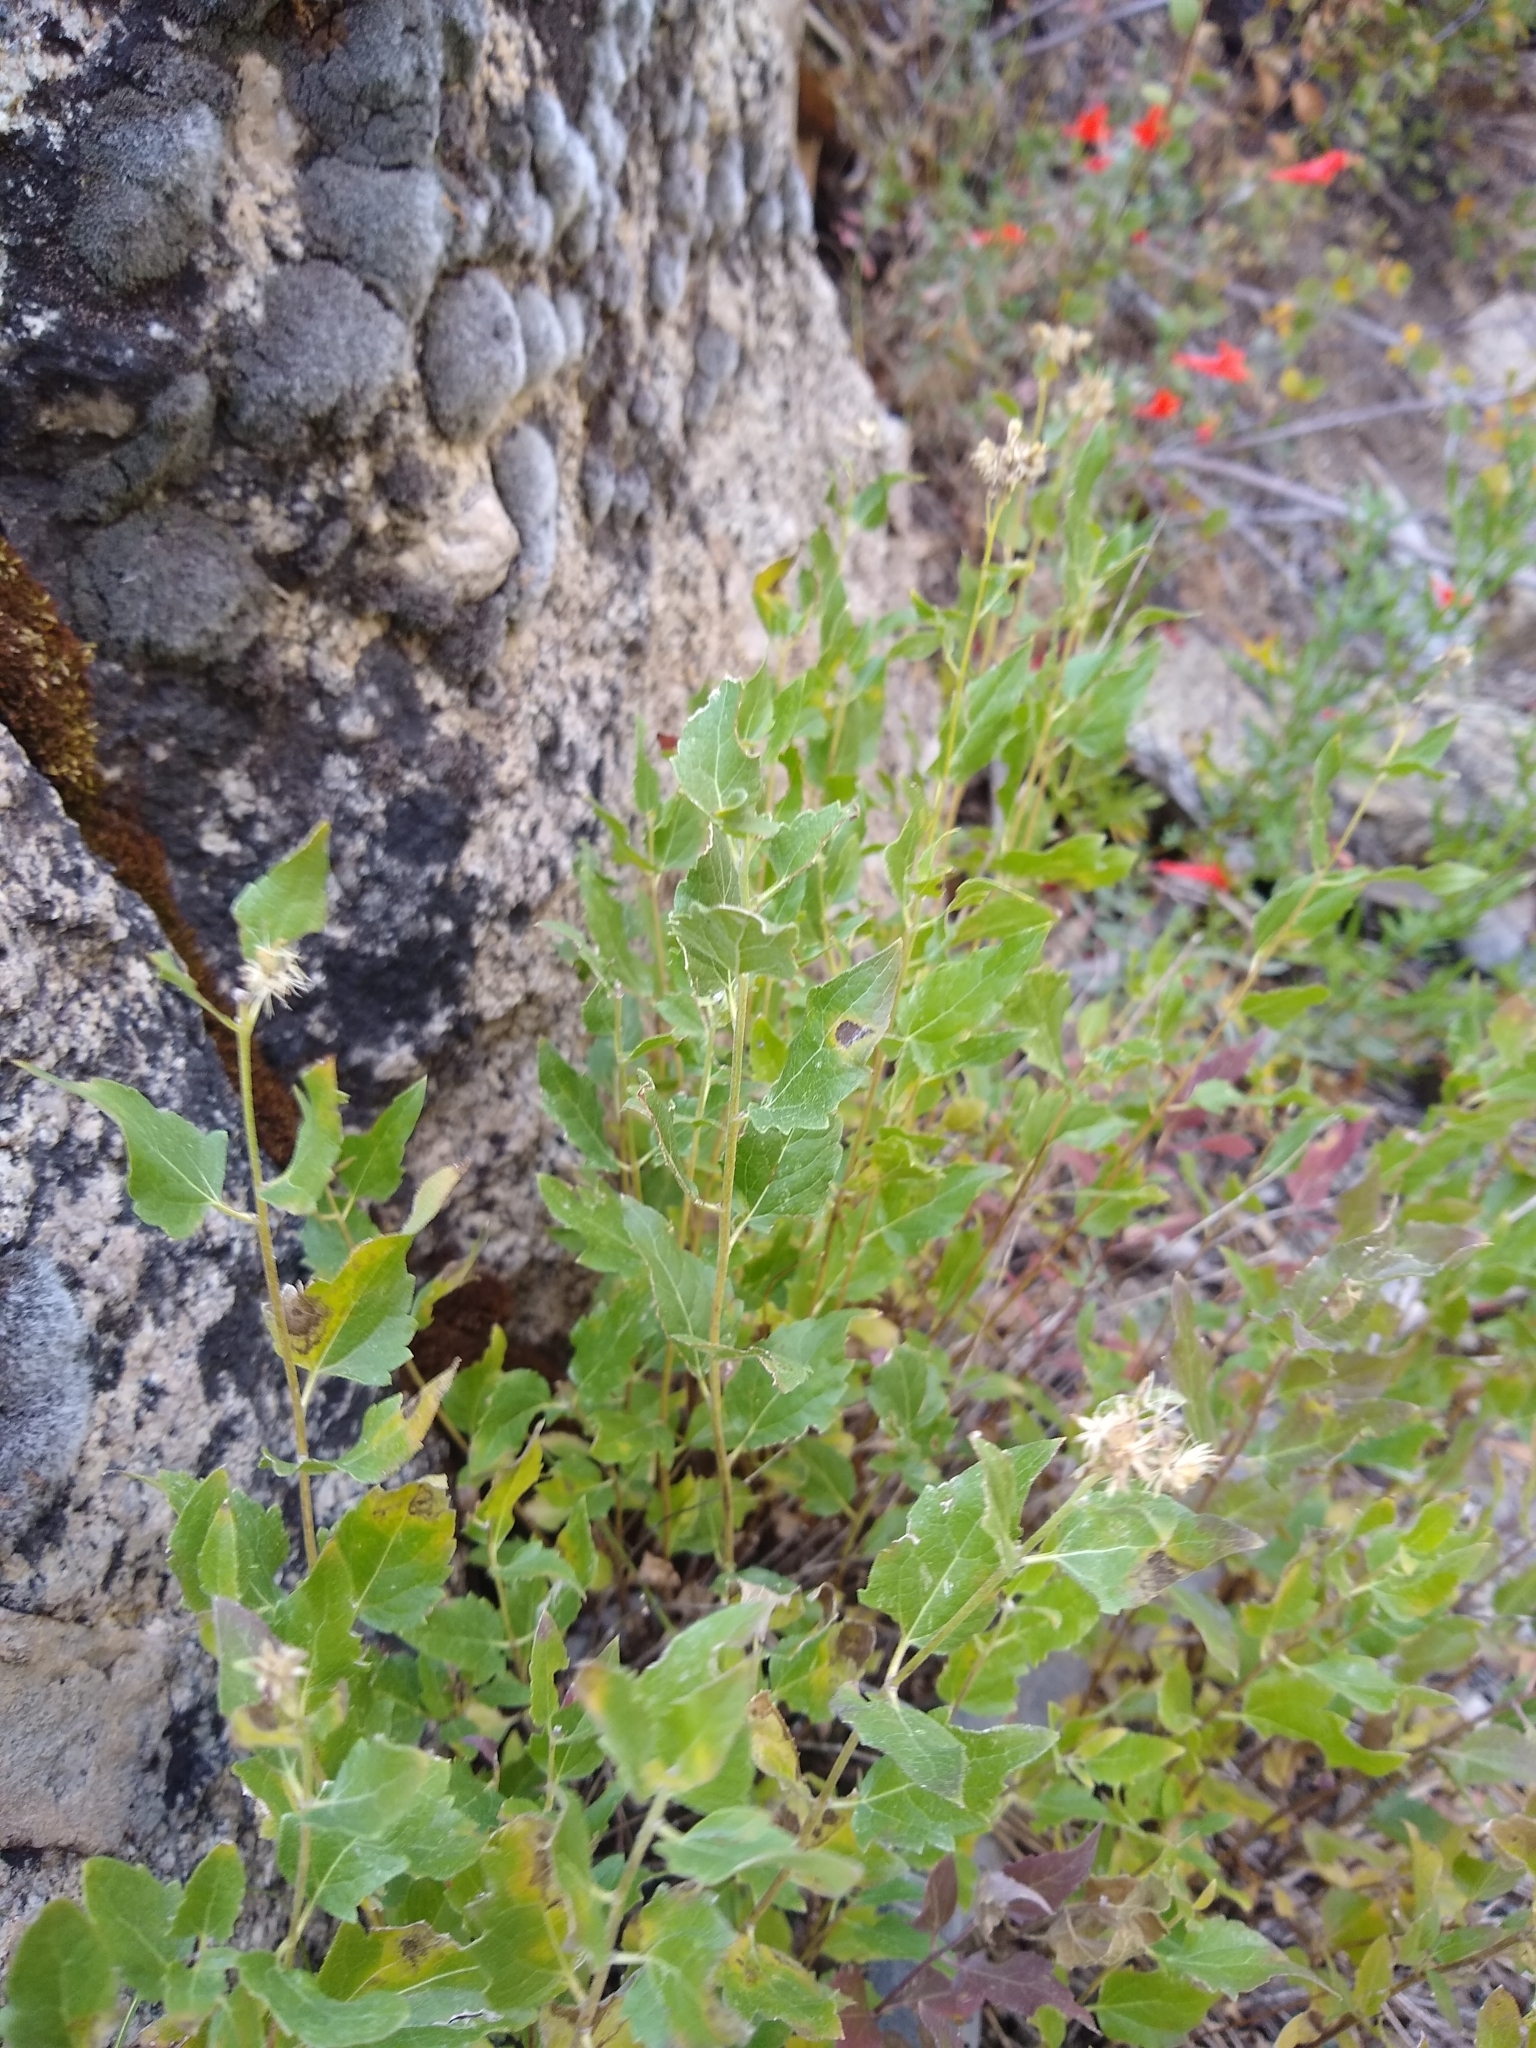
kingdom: Plantae
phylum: Tracheophyta
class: Magnoliopsida
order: Asterales
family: Asteraceae
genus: Ageratina
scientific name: Ageratina occidentalis
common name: Western snakeroot
